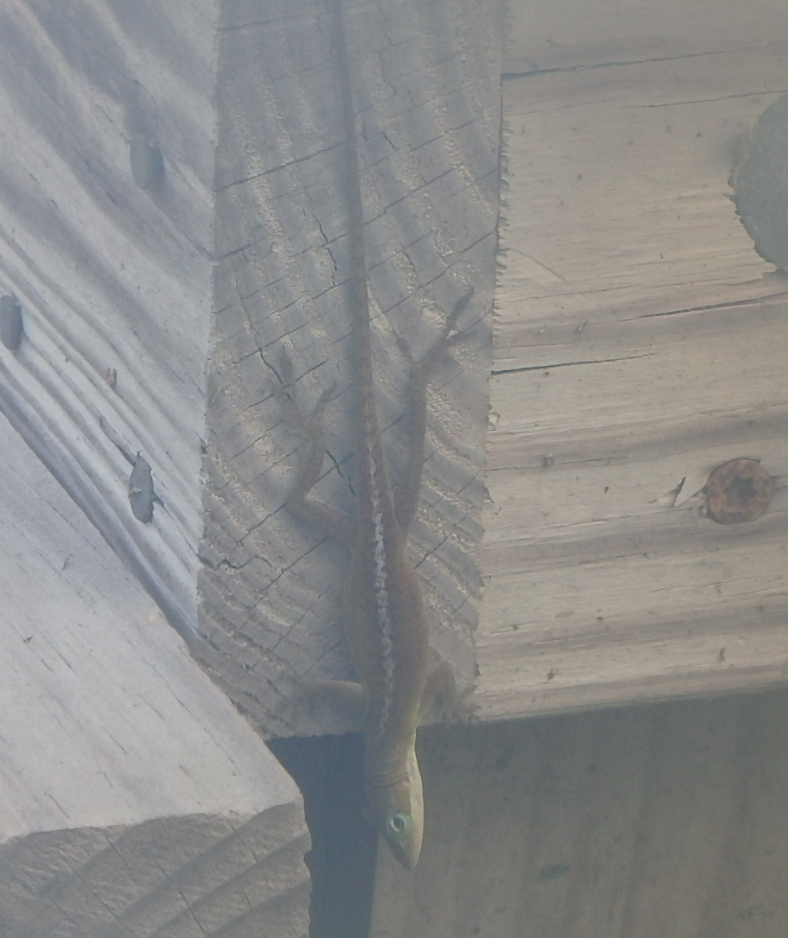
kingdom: Animalia
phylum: Chordata
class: Squamata
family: Dactyloidae
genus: Anolis
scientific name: Anolis carolinensis
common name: Green anole
